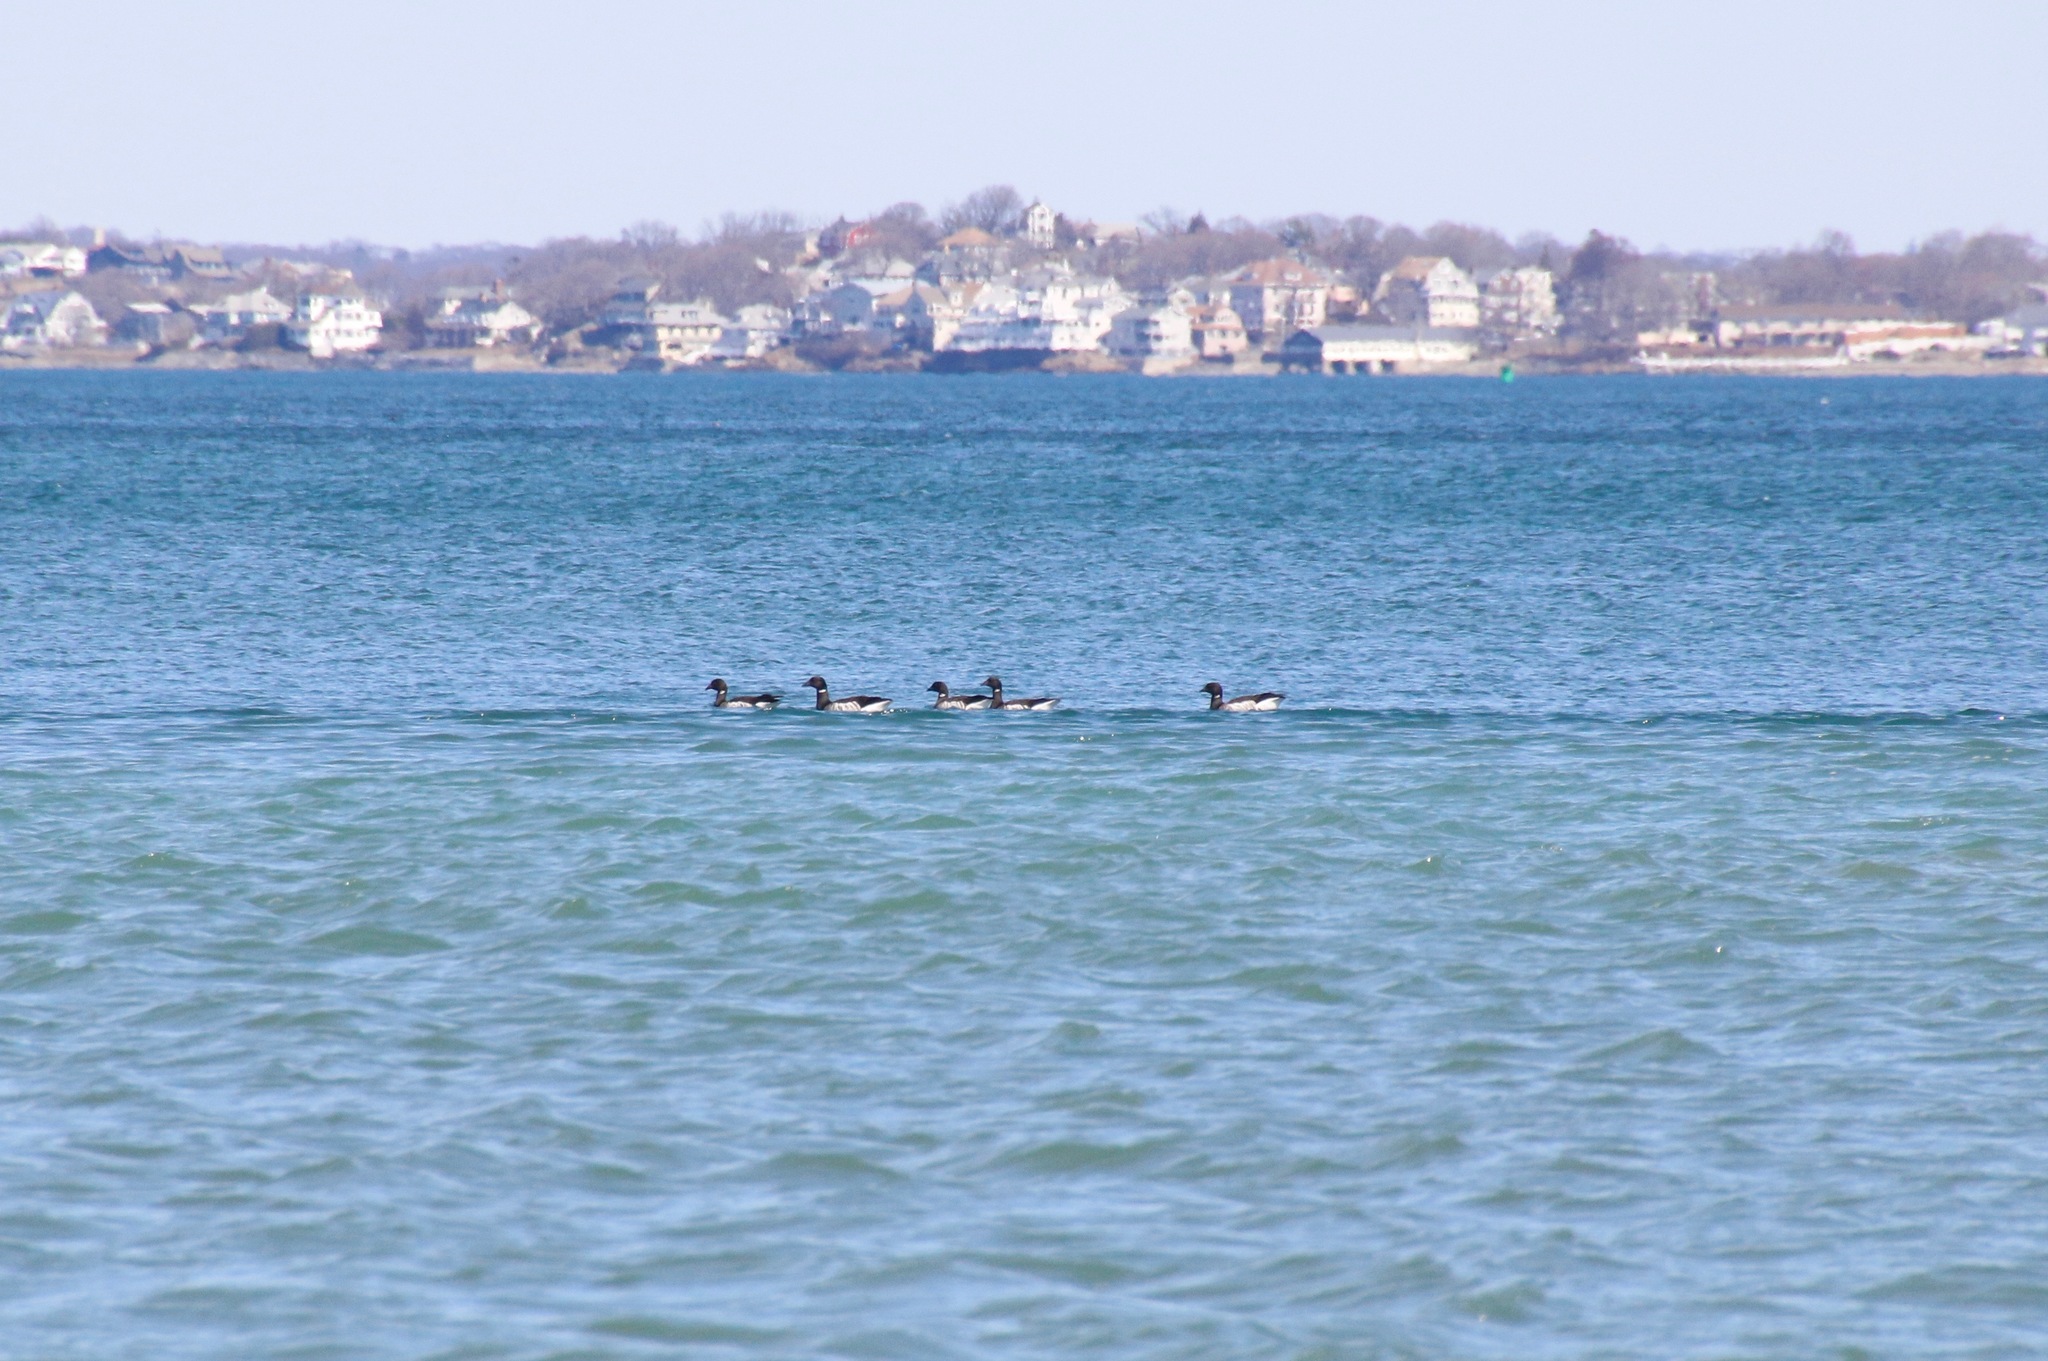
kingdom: Animalia
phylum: Chordata
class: Aves
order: Anseriformes
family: Anatidae
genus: Branta
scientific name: Branta bernicla
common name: Brant goose
